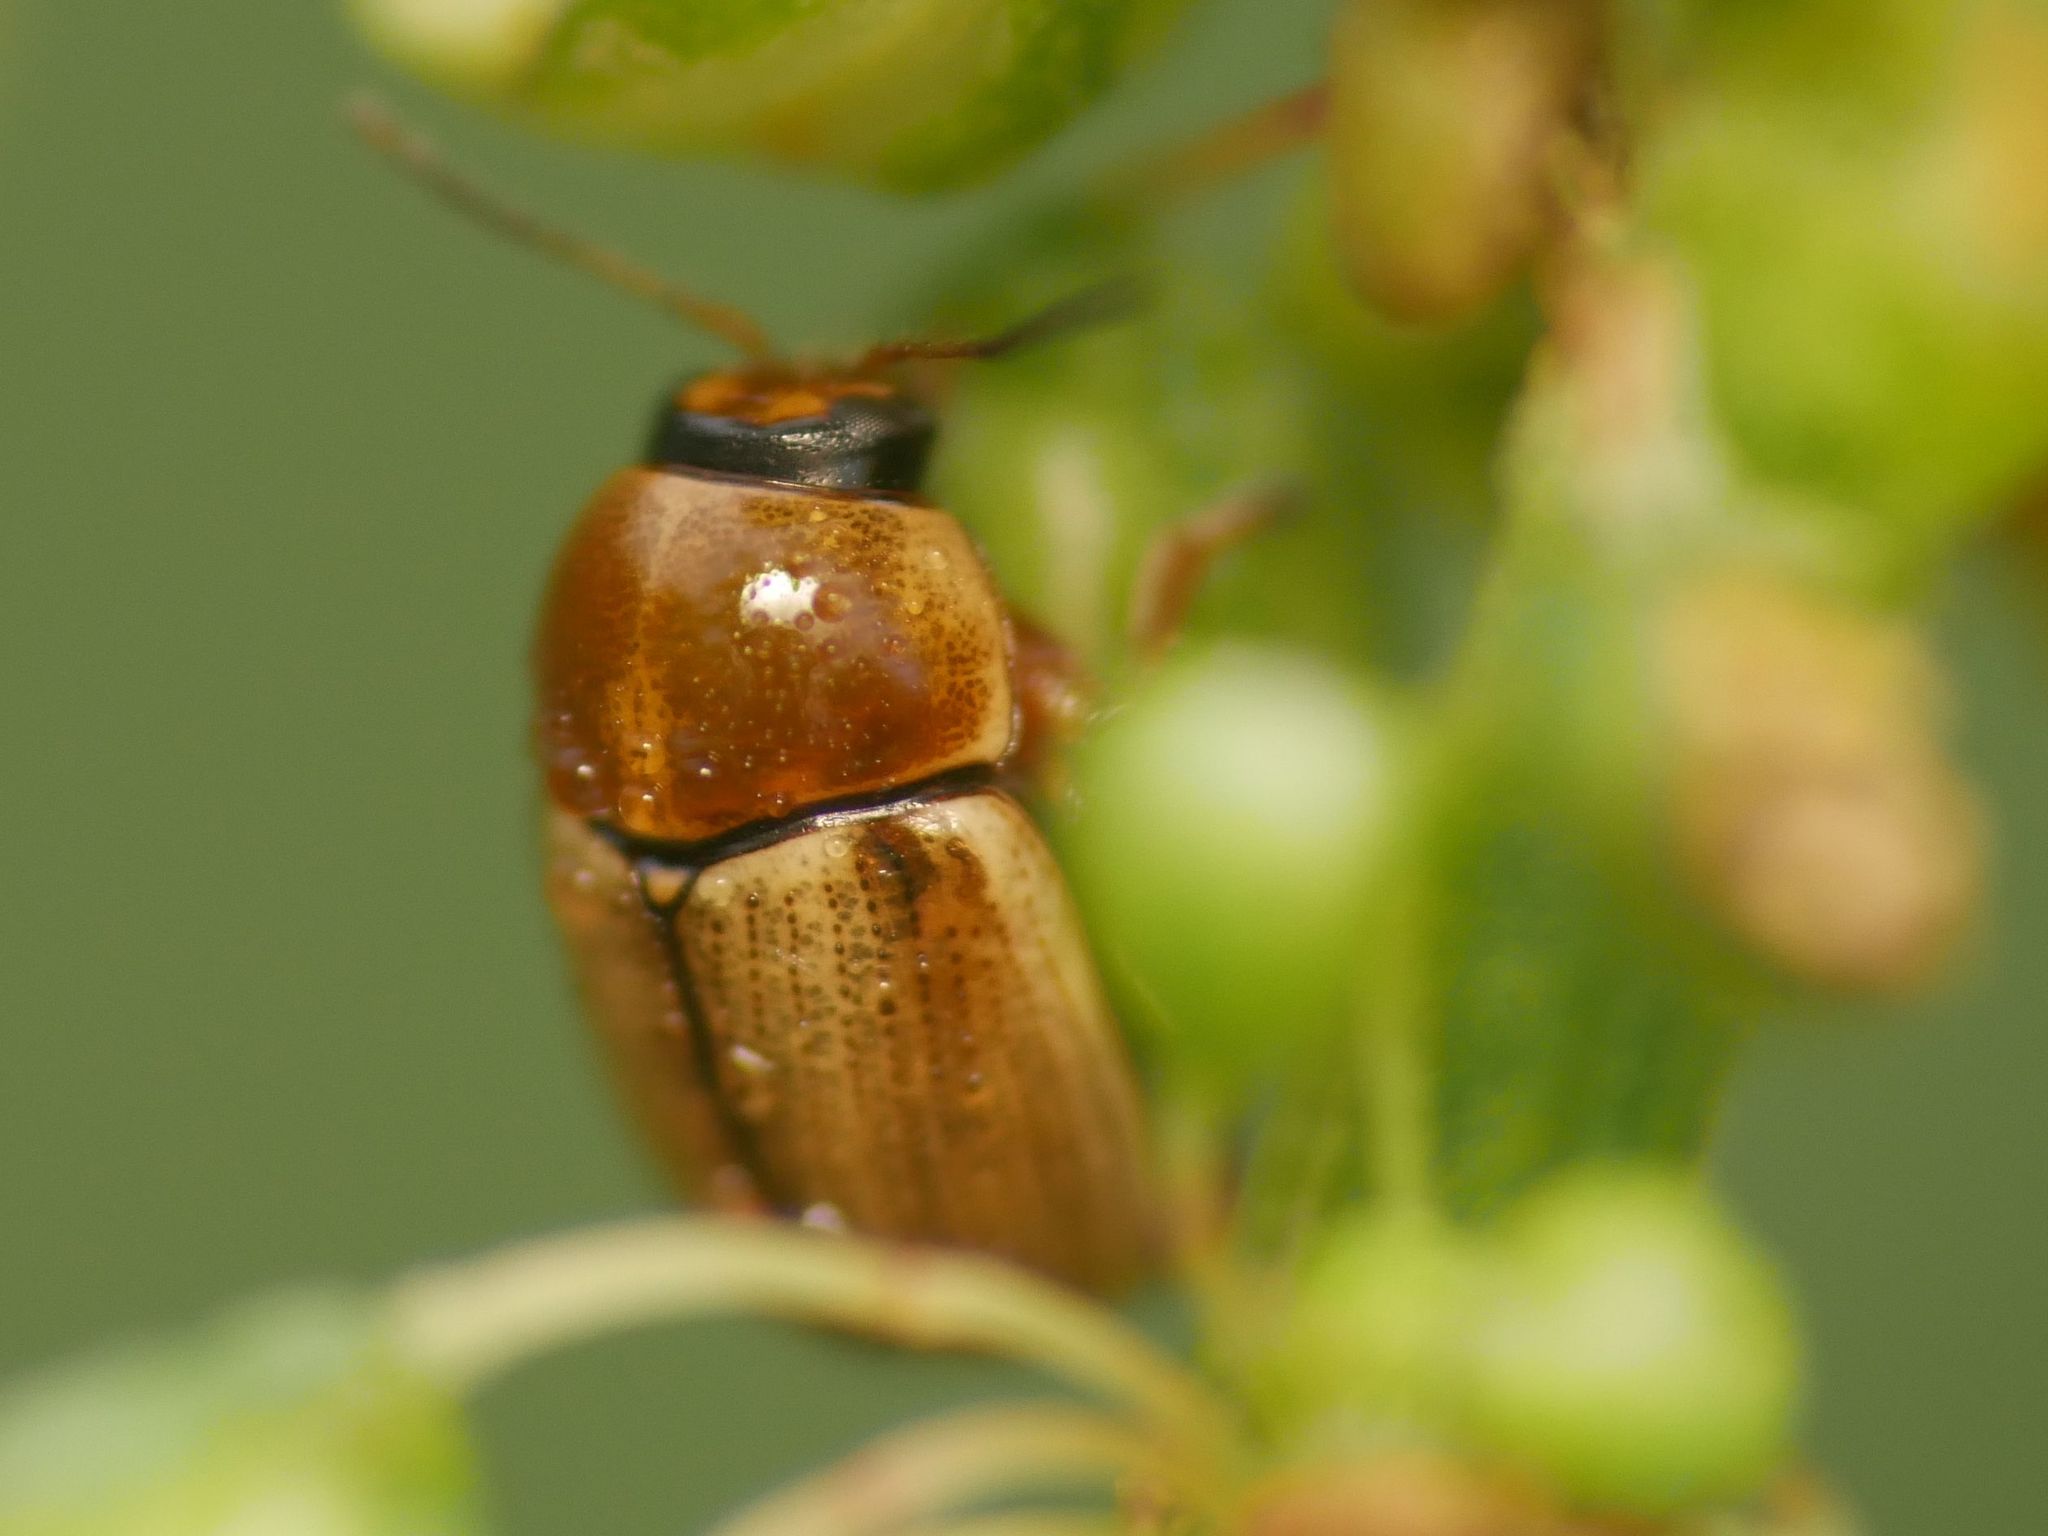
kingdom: Animalia
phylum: Arthropoda
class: Insecta
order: Coleoptera
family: Chrysomelidae
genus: Cryptocephalus
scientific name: Cryptocephalus fulvus
